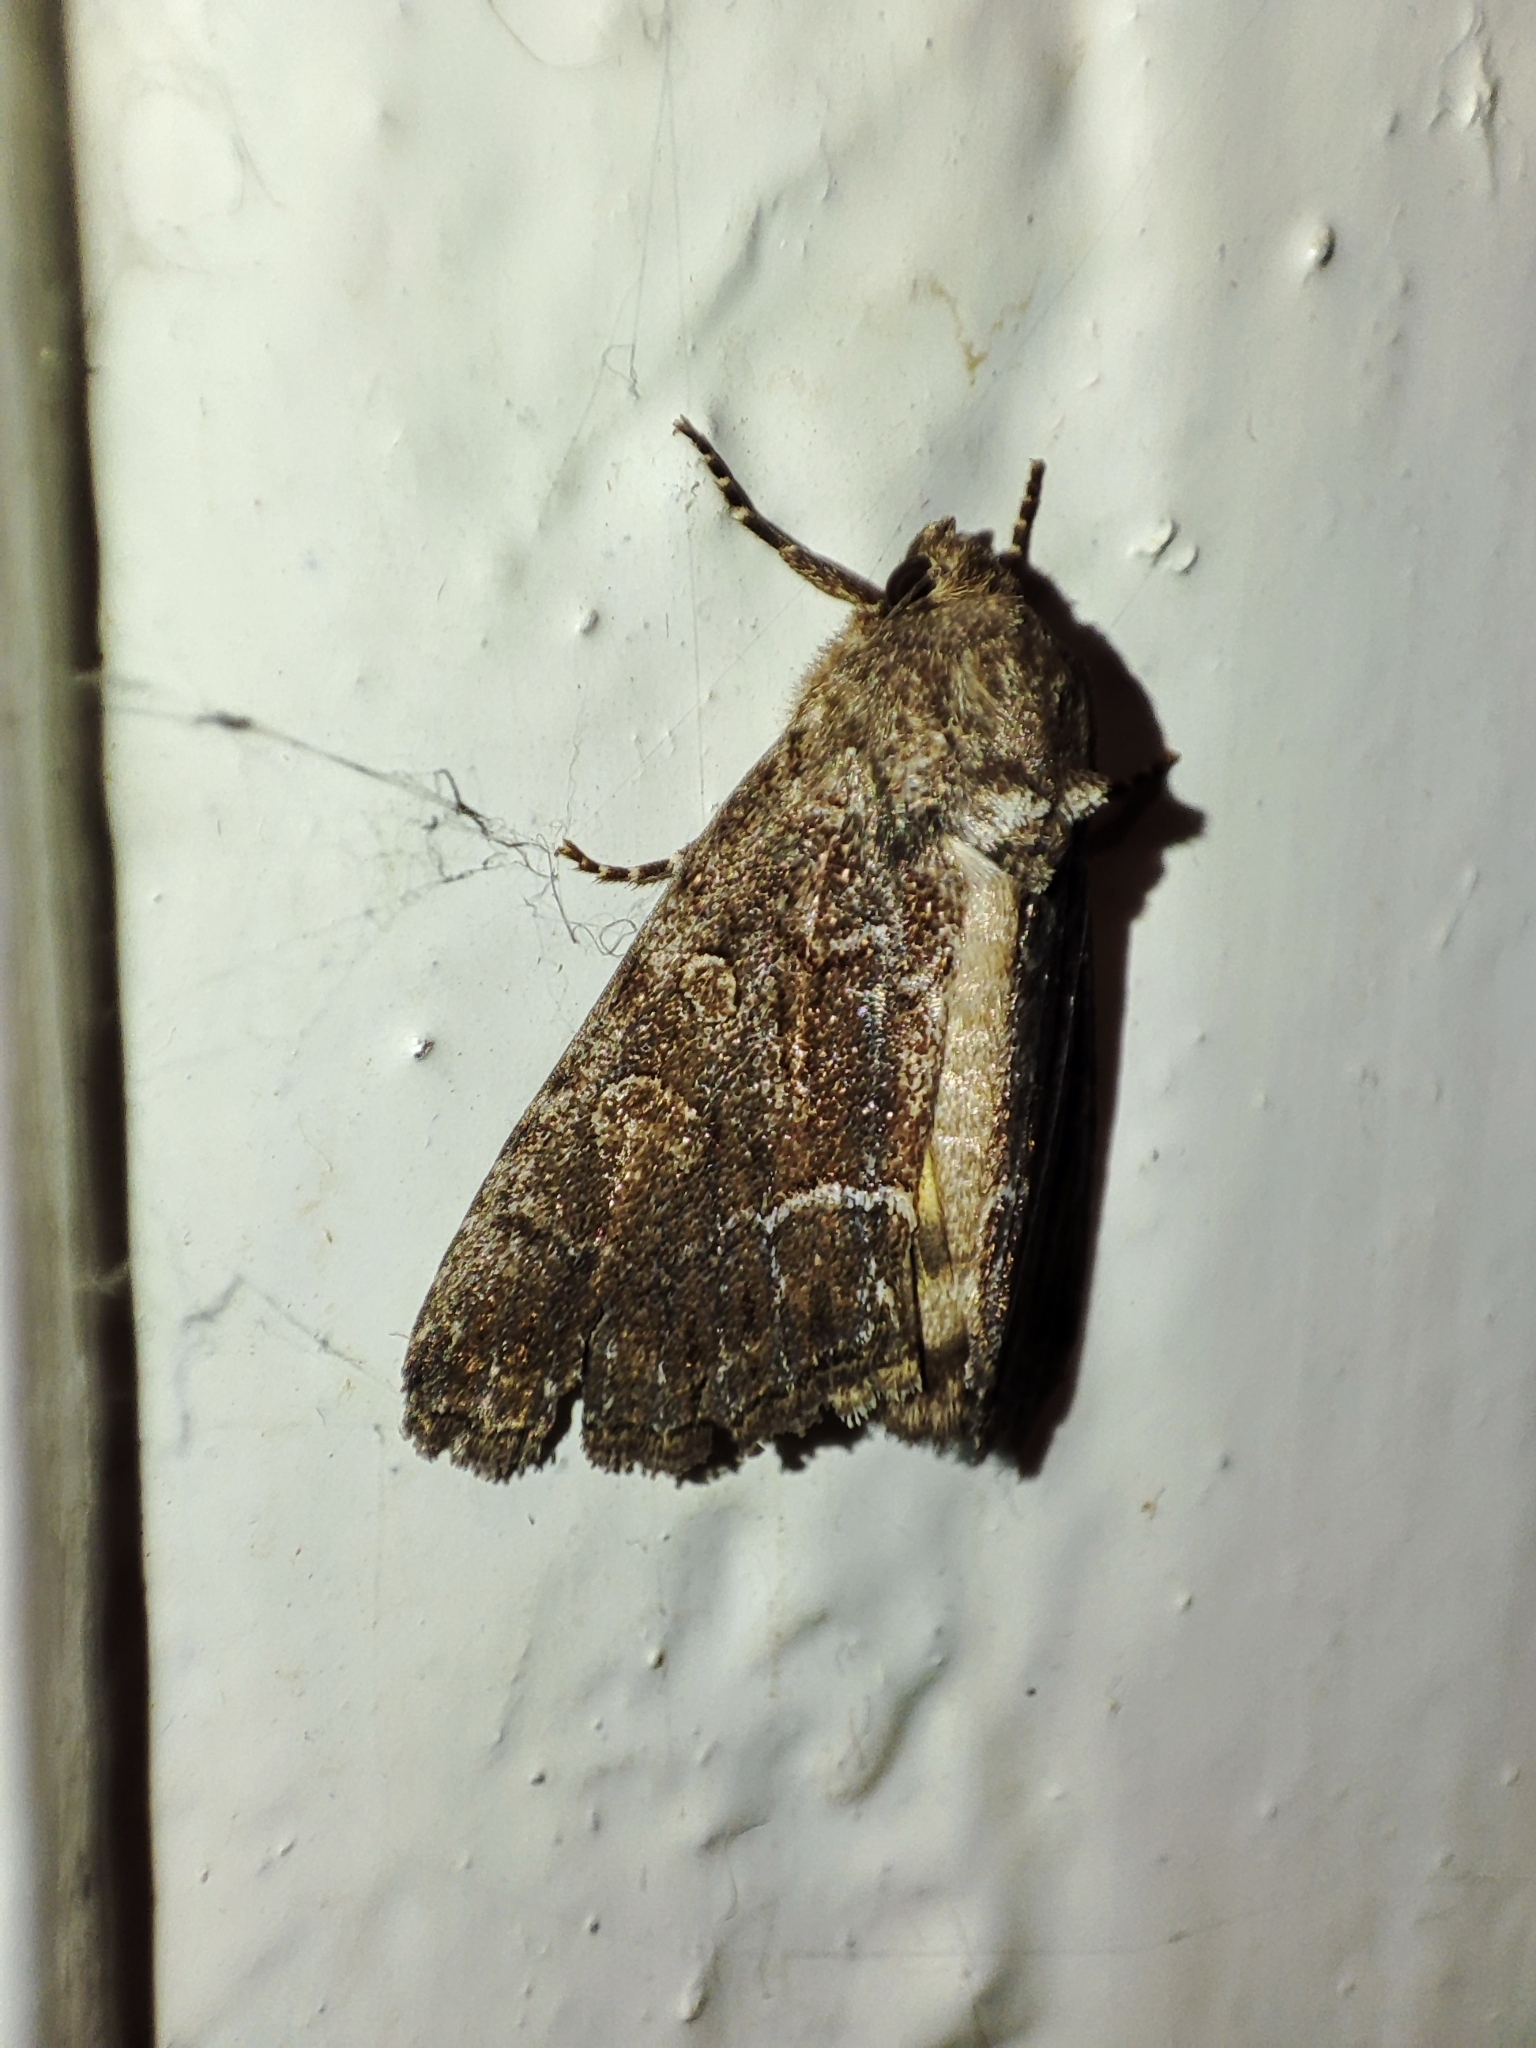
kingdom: Animalia
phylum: Arthropoda
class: Insecta
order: Lepidoptera
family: Noctuidae
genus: Thalpophila
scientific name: Thalpophila matura
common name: Straw underwing
